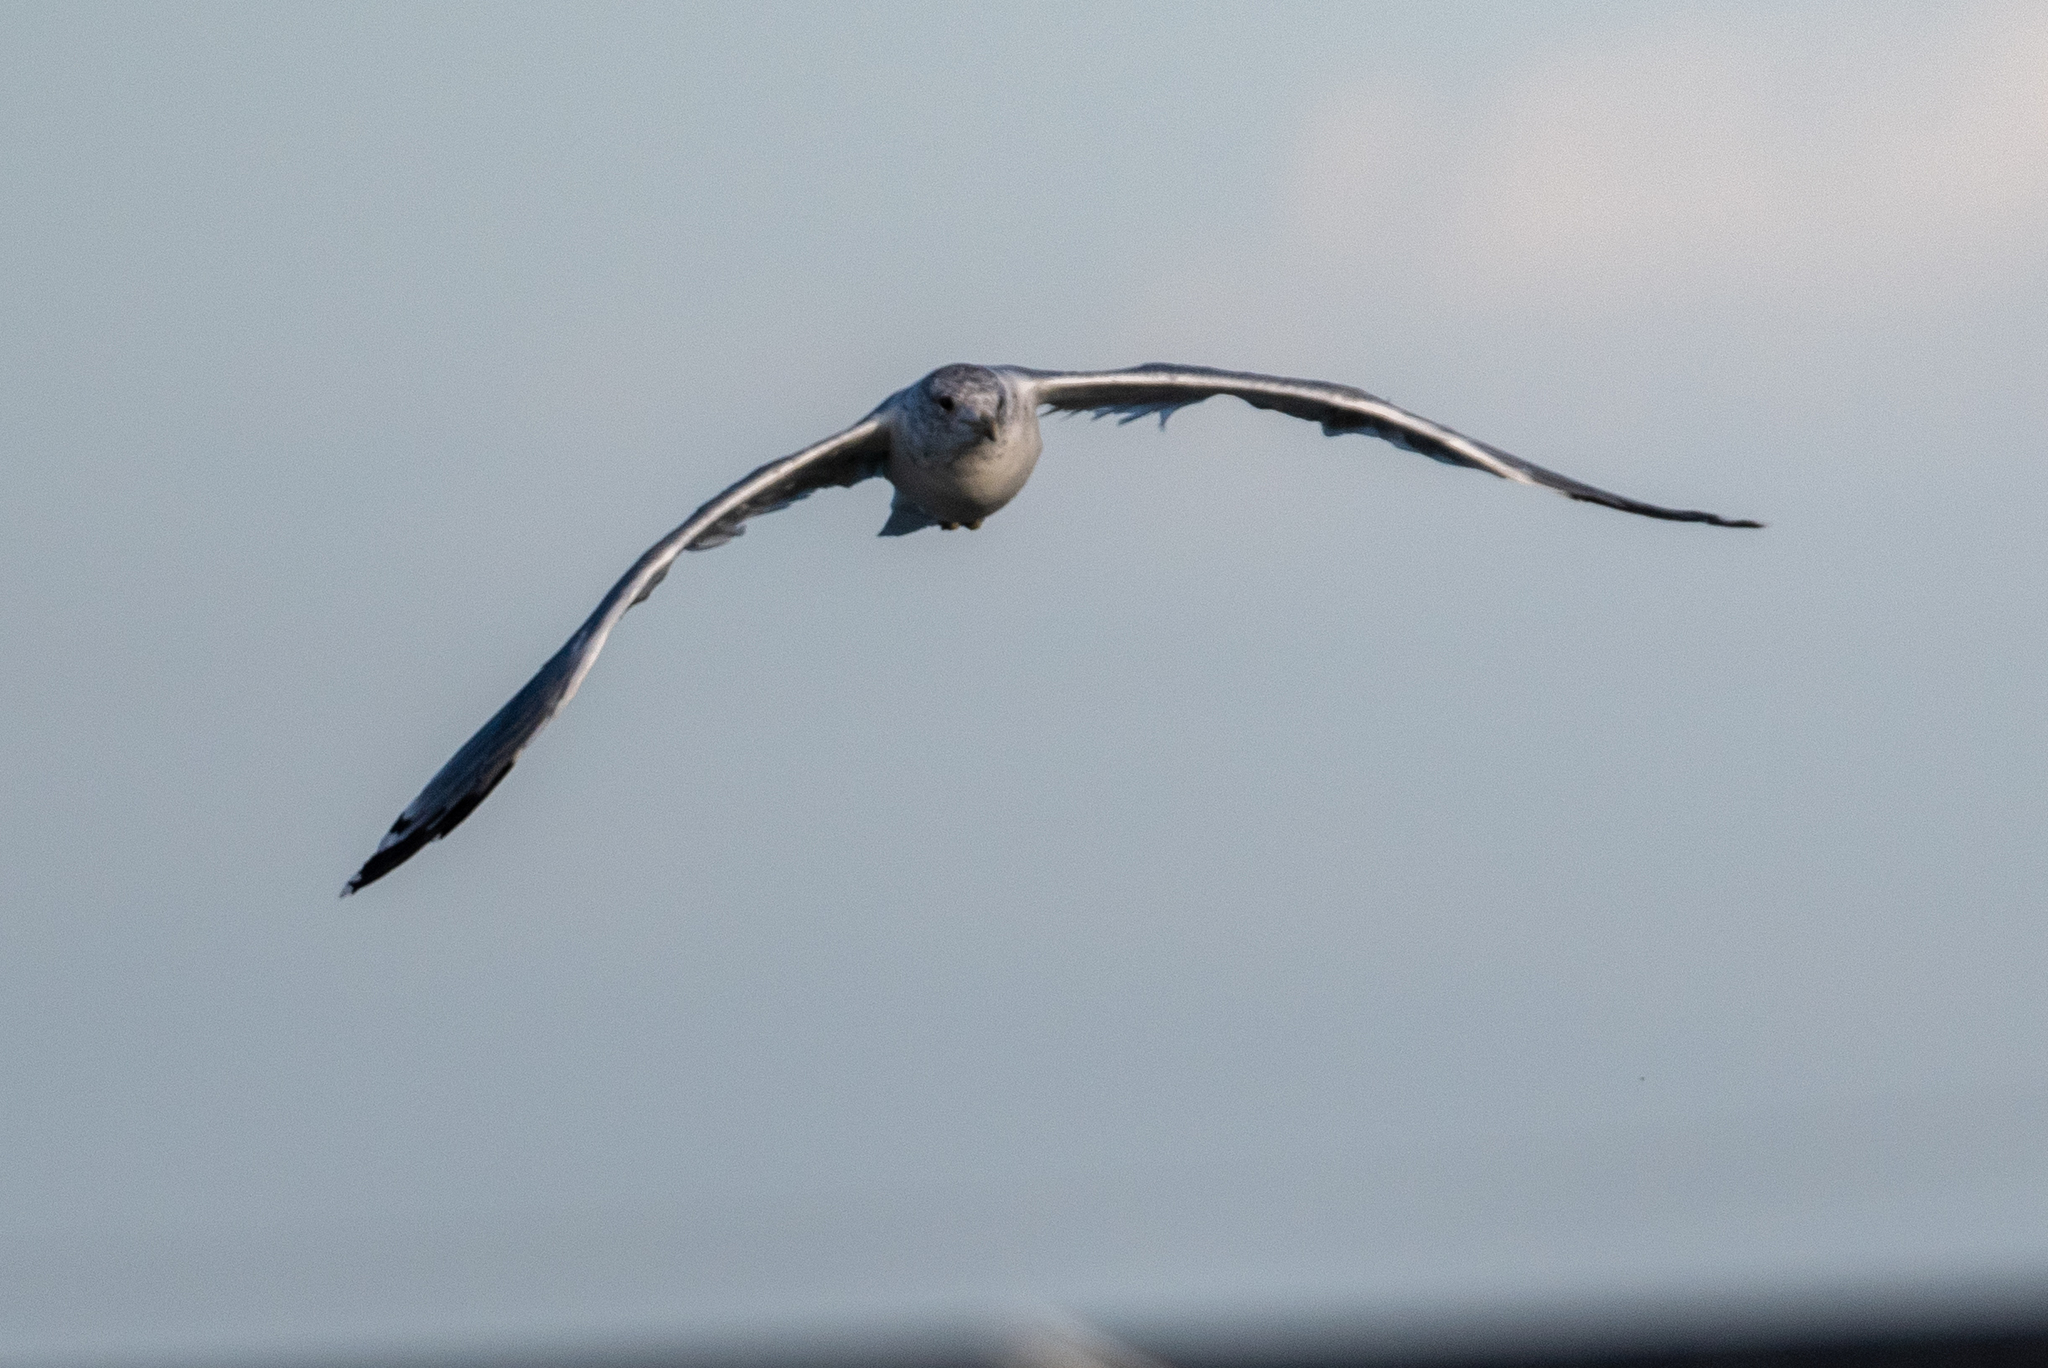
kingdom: Animalia
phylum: Chordata
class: Aves
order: Charadriiformes
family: Laridae
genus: Larus
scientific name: Larus californicus
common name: California gull
